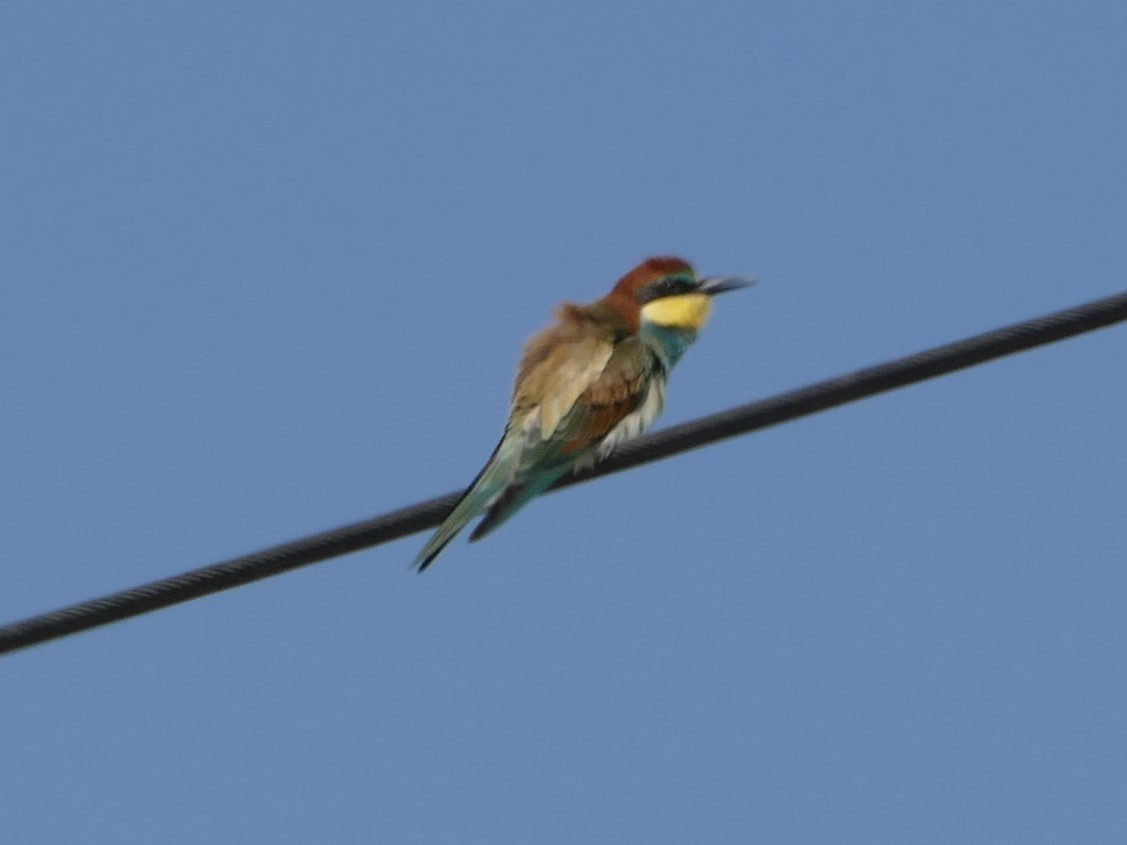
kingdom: Animalia
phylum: Chordata
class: Aves
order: Coraciiformes
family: Meropidae
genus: Merops
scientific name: Merops apiaster
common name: European bee-eater
